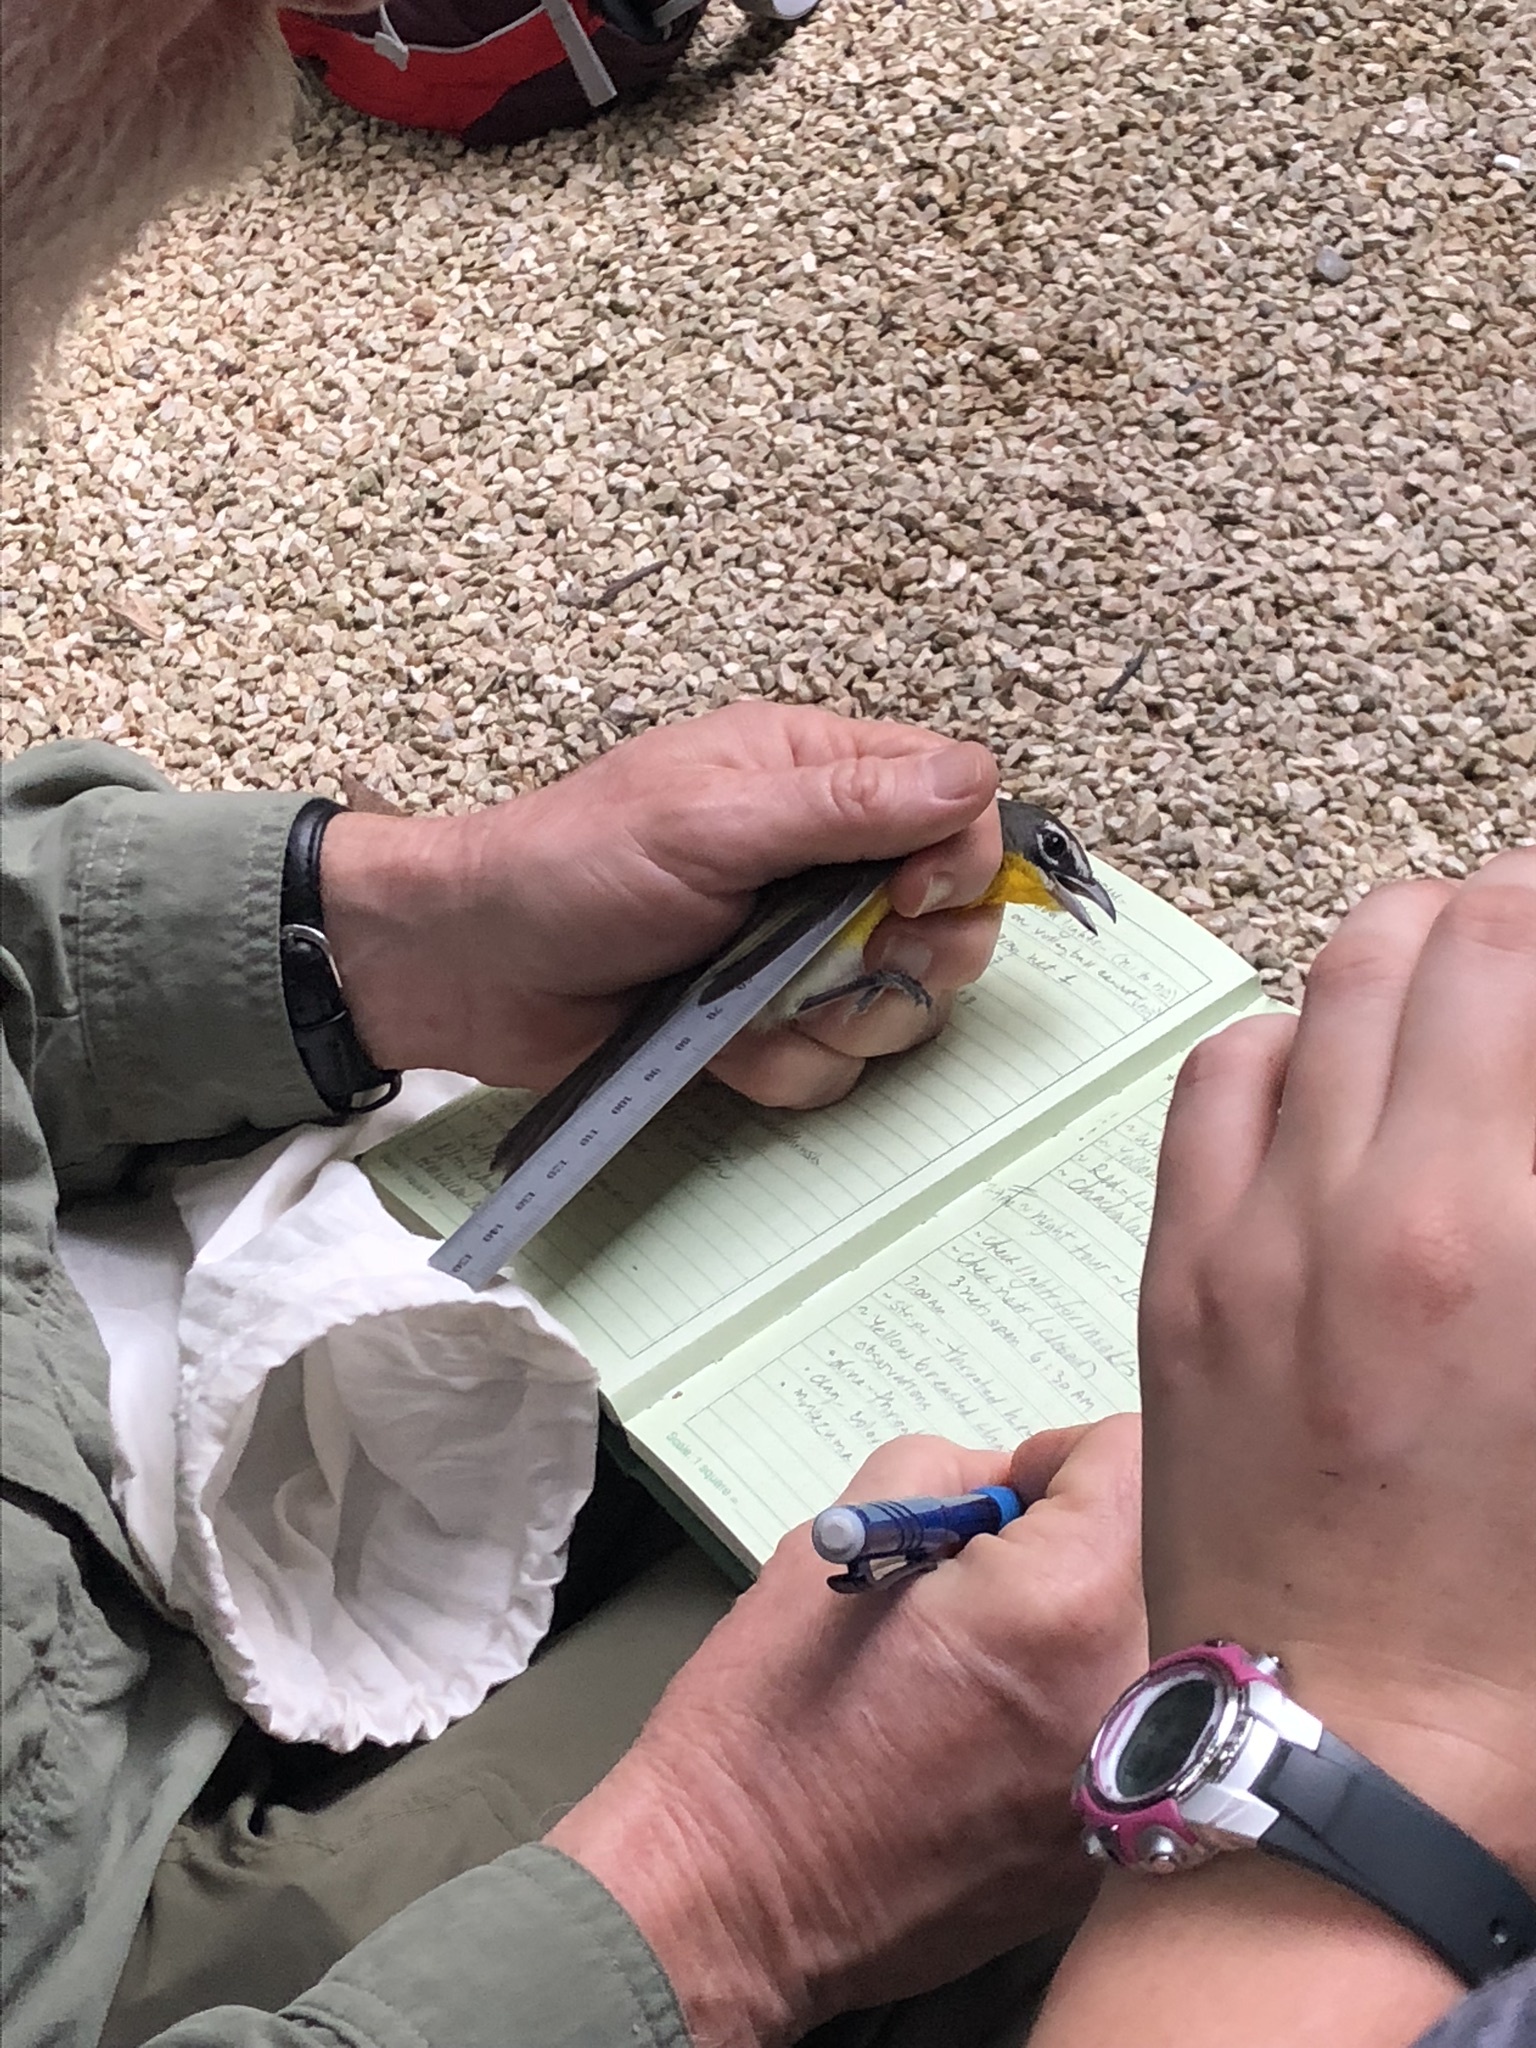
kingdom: Animalia
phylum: Chordata
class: Aves
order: Passeriformes
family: Parulidae
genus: Icteria
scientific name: Icteria virens
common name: Yellow-breasted chat
